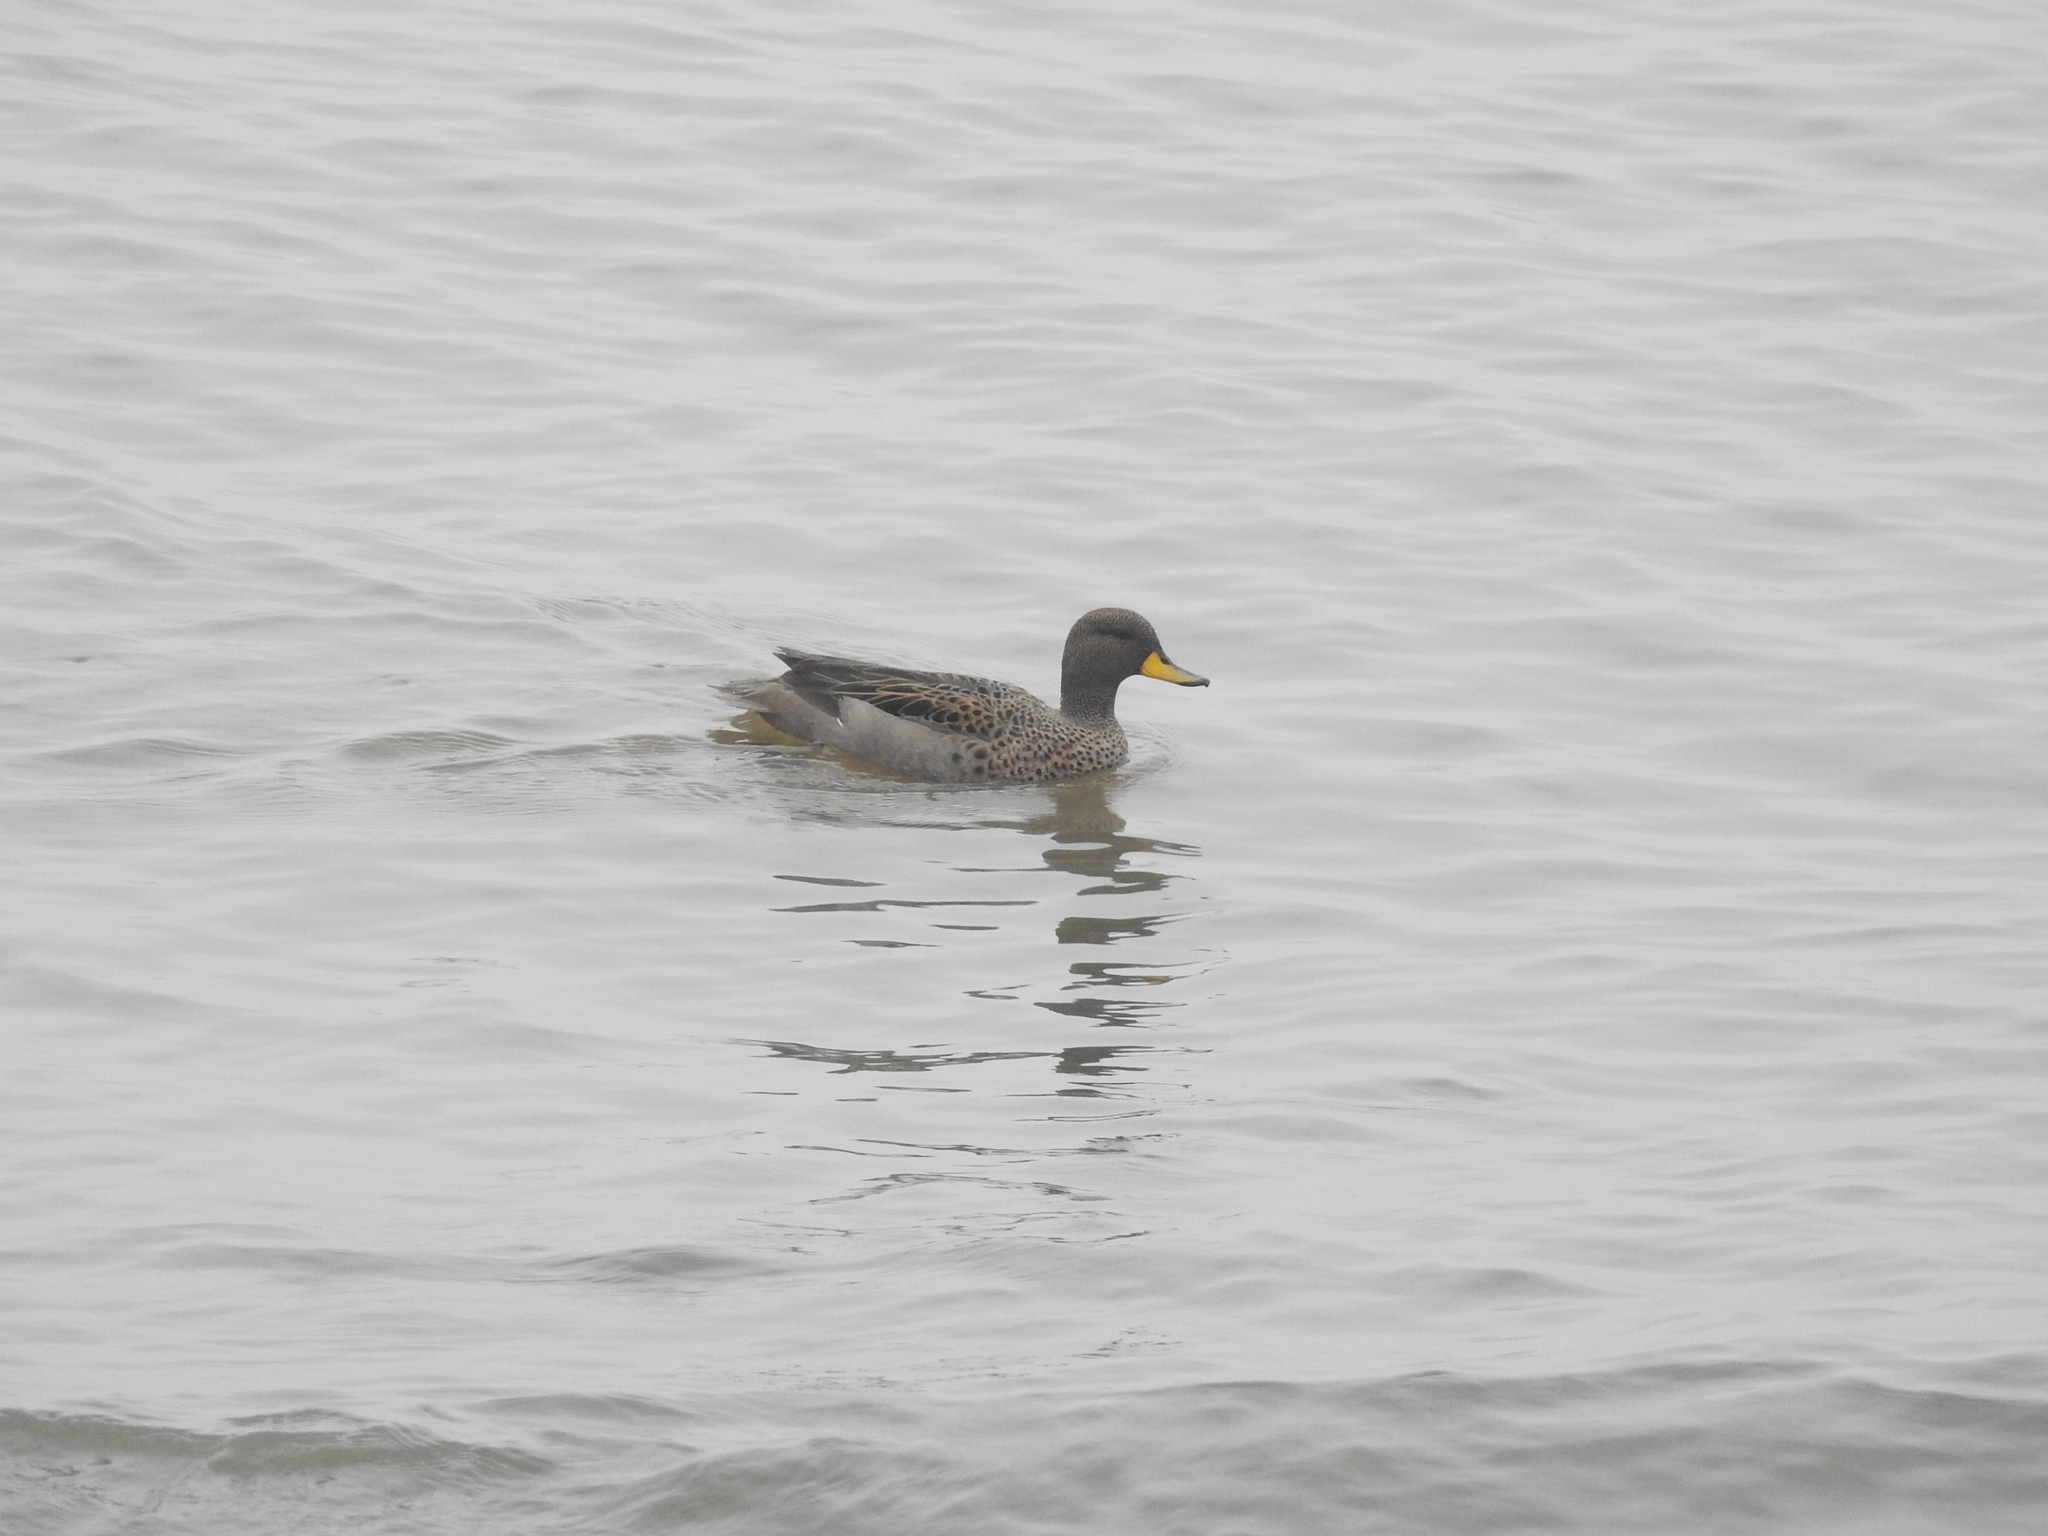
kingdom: Animalia
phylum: Chordata
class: Aves
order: Anseriformes
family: Anatidae
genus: Anas
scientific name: Anas flavirostris
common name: Yellow-billed teal
